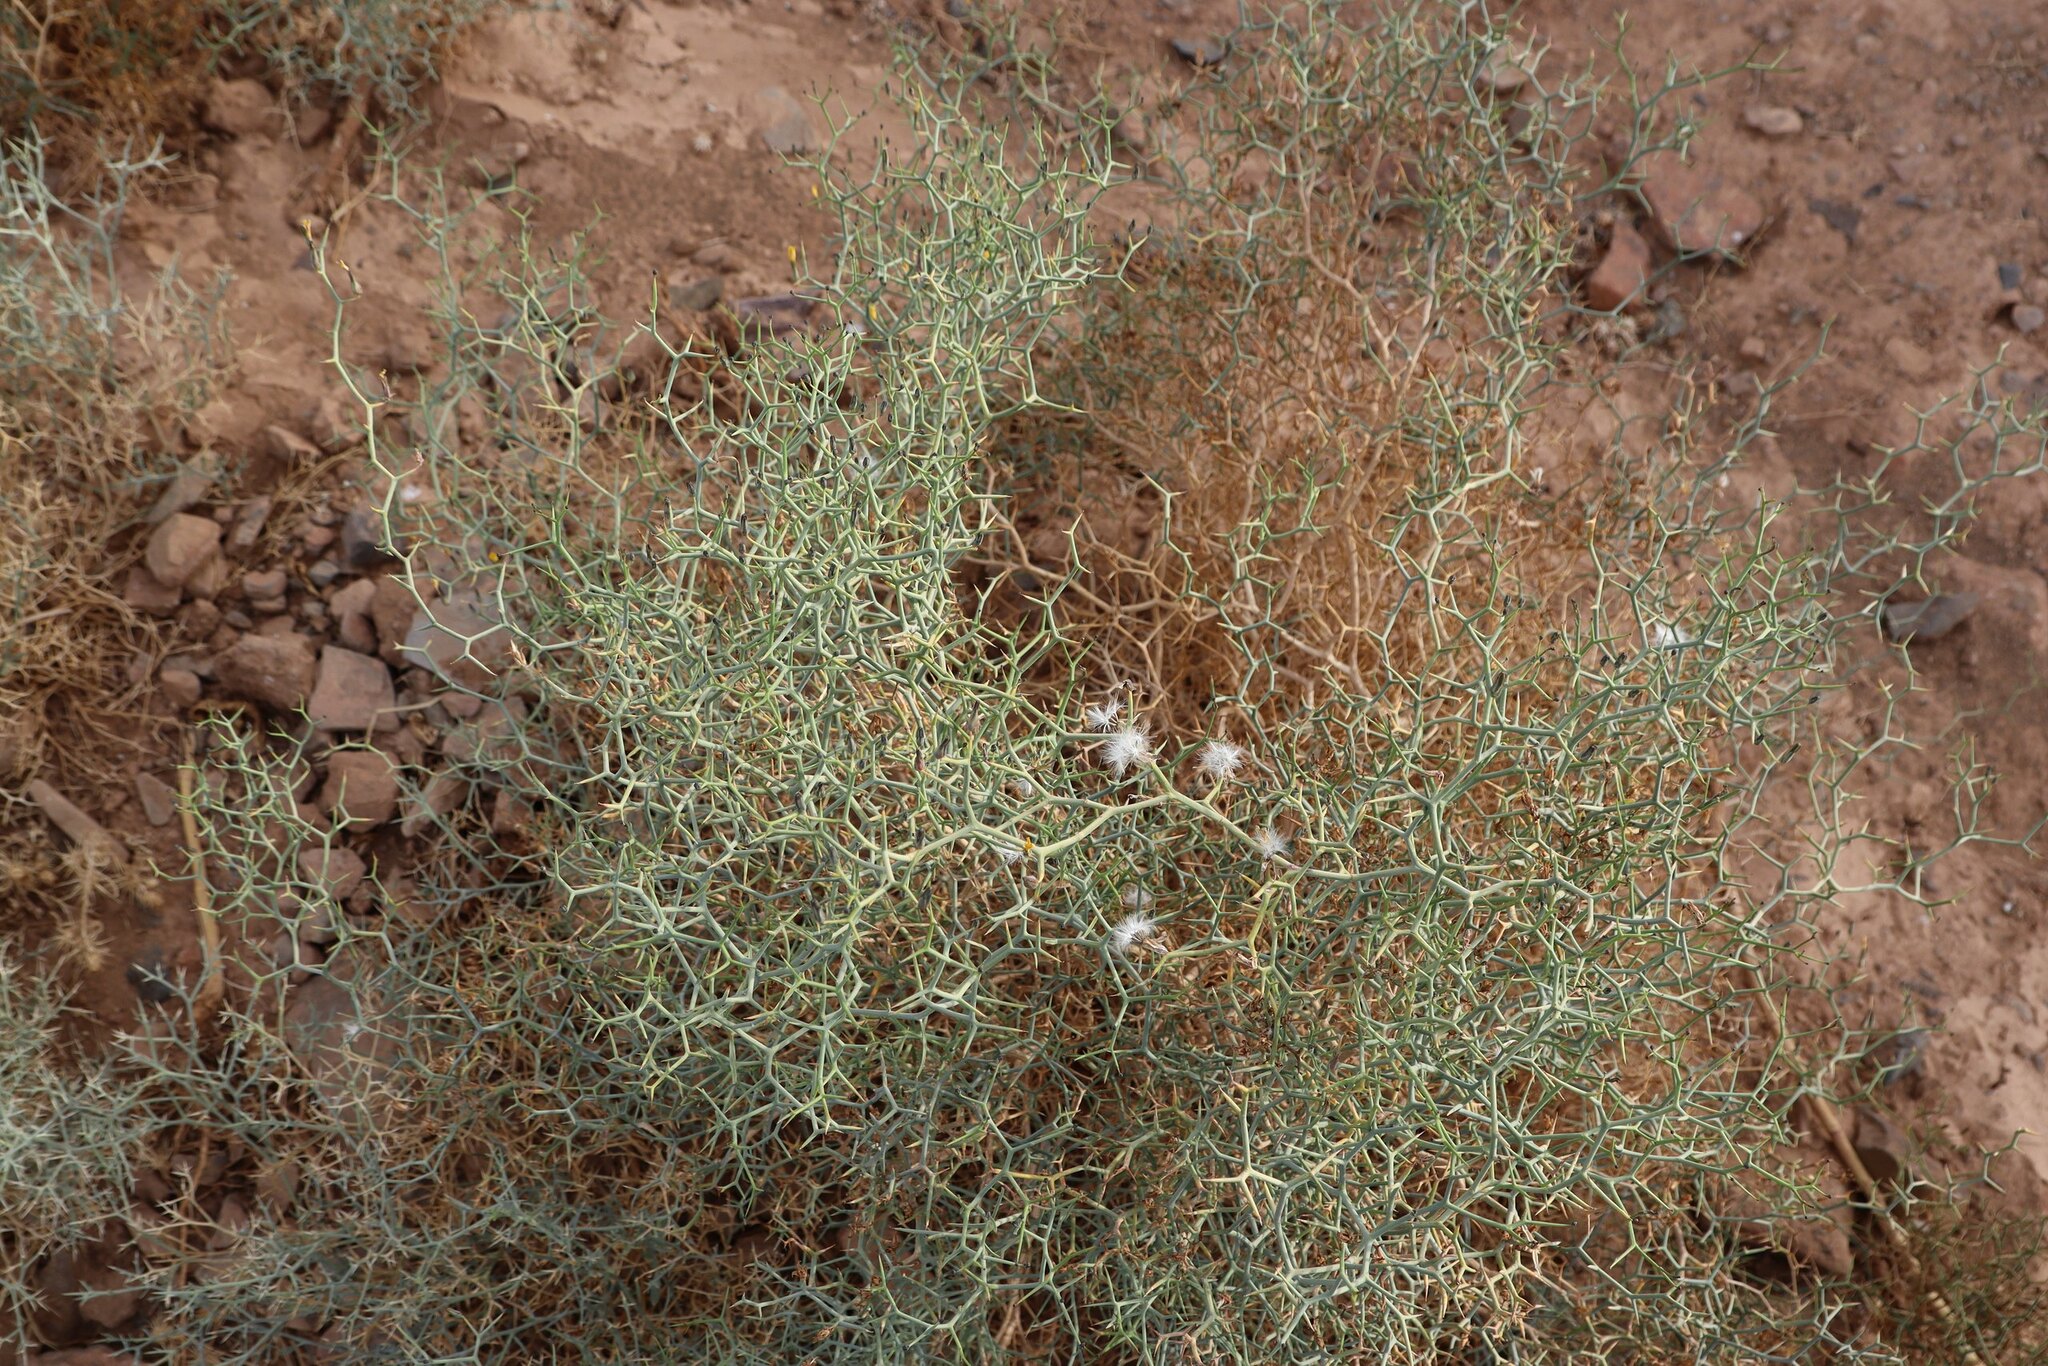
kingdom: Plantae
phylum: Tracheophyta
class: Magnoliopsida
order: Asterales
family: Asteraceae
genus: Launaea
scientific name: Launaea arborescens
